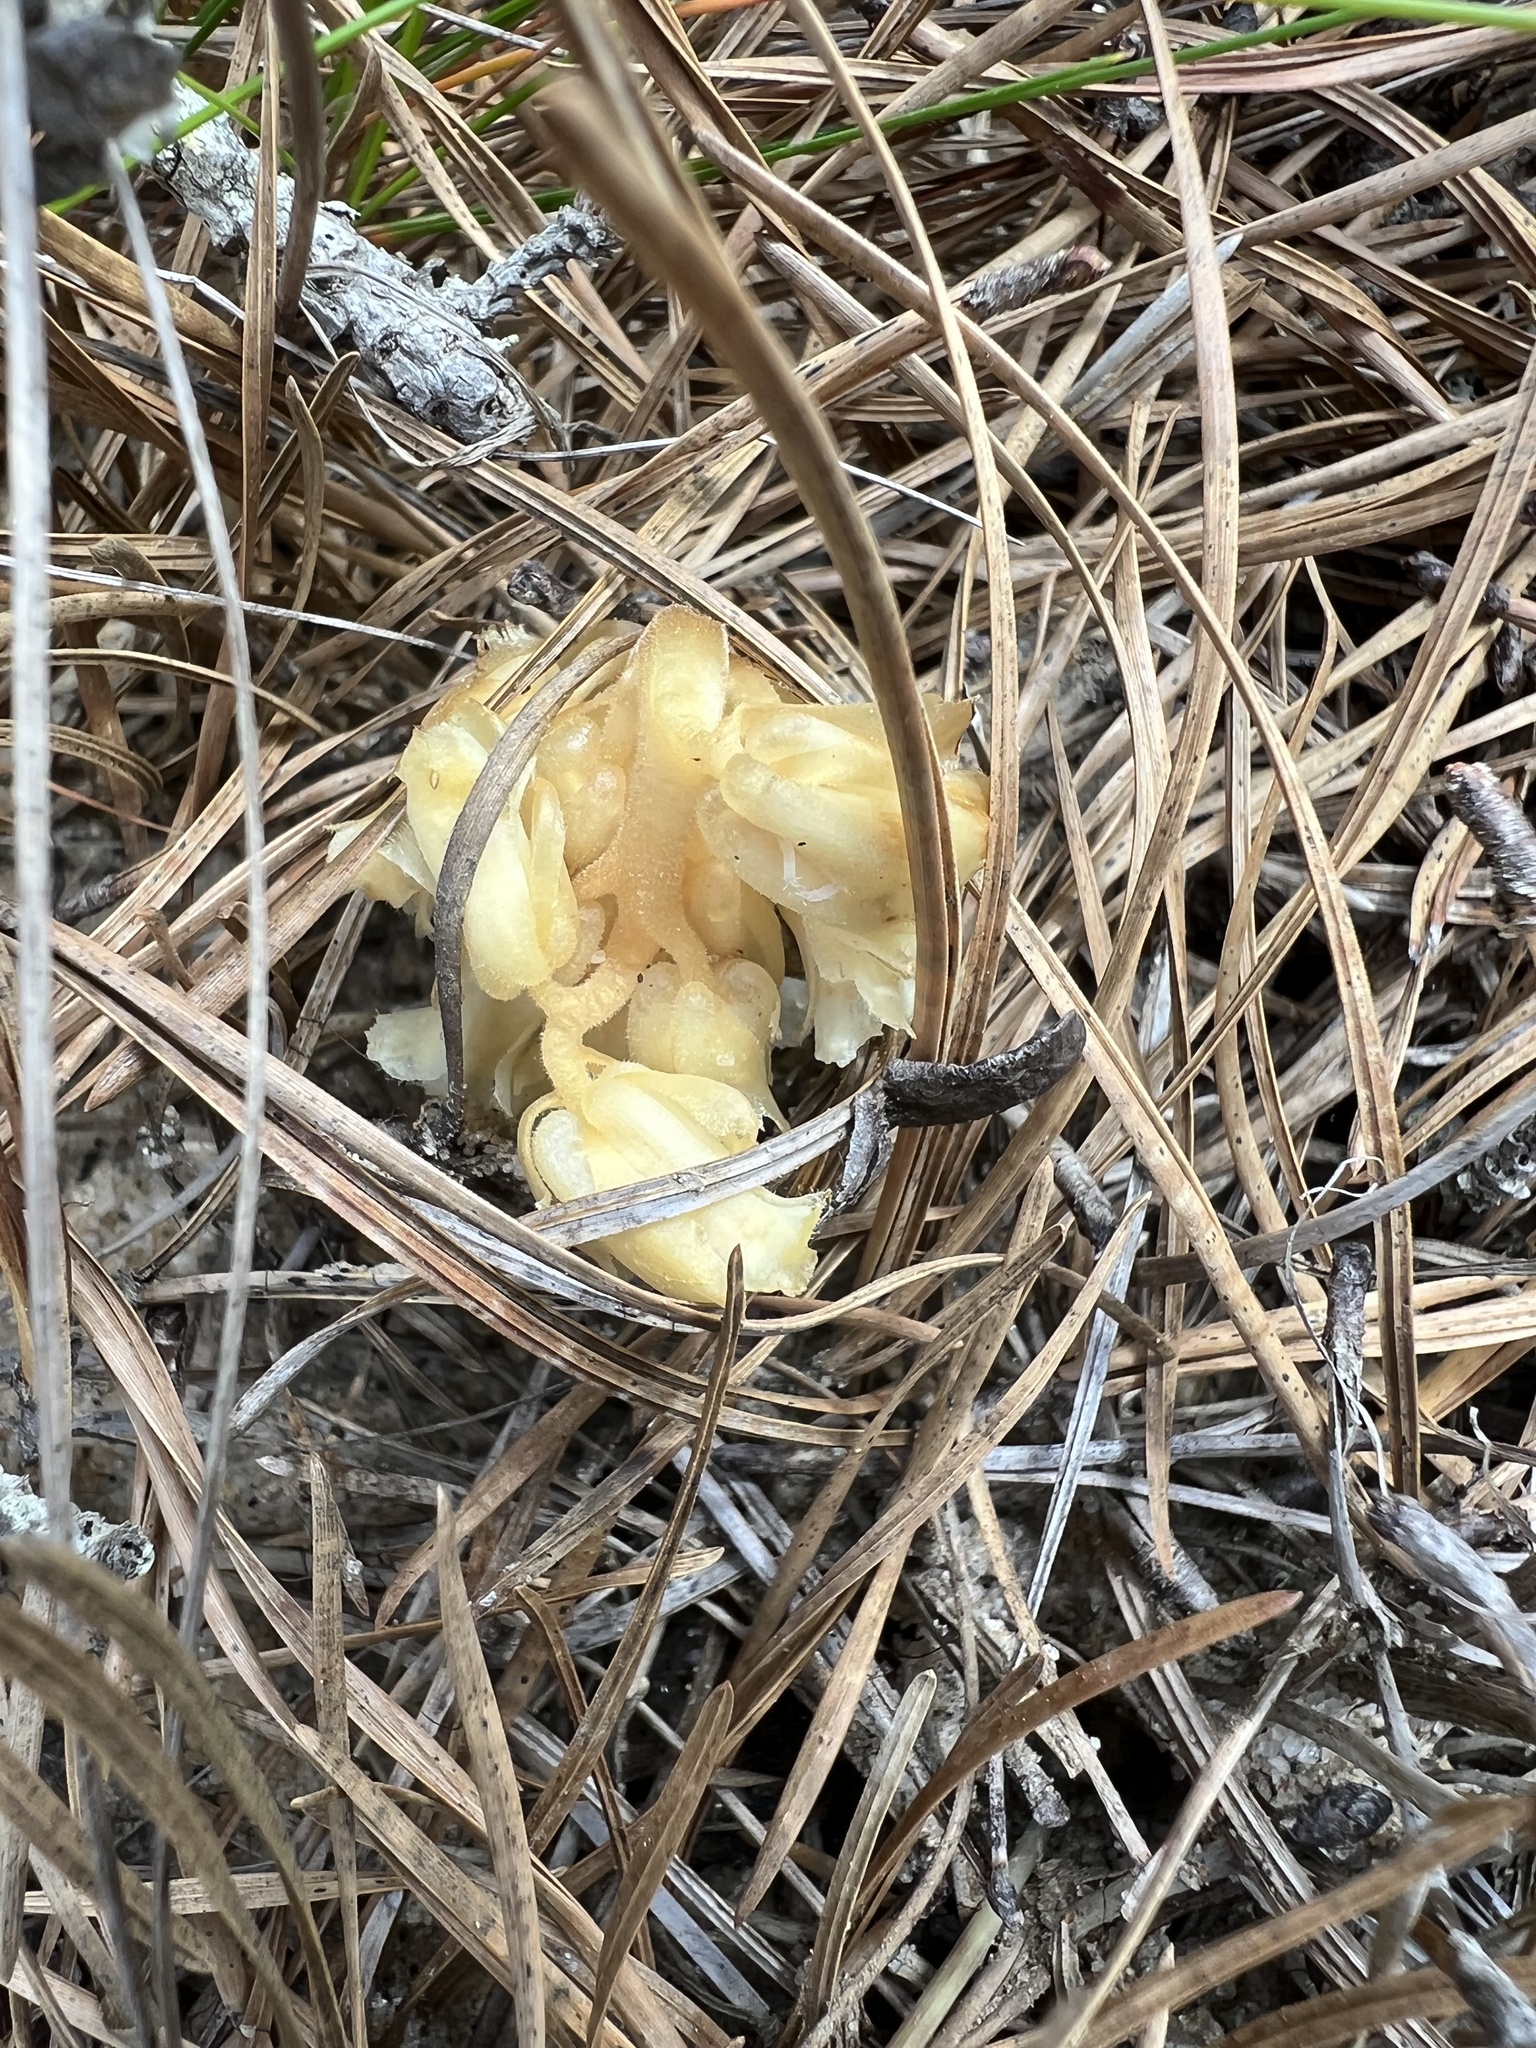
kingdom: Plantae
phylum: Tracheophyta
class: Magnoliopsida
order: Ericales
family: Ericaceae
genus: Hypopitys
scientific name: Hypopitys monotropa
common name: Yellow bird's-nest
